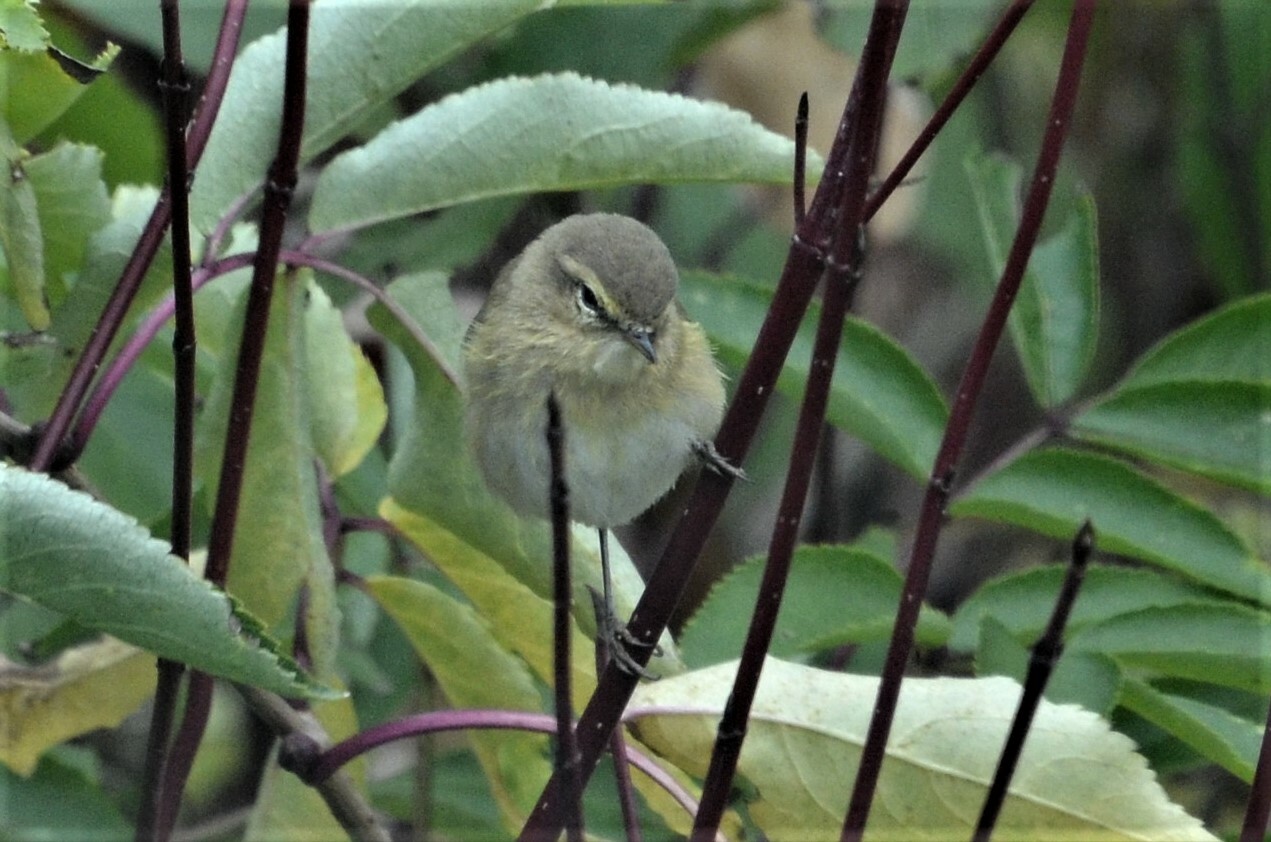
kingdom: Animalia
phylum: Chordata
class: Aves
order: Passeriformes
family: Phylloscopidae
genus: Phylloscopus
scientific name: Phylloscopus collybita
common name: Common chiffchaff
